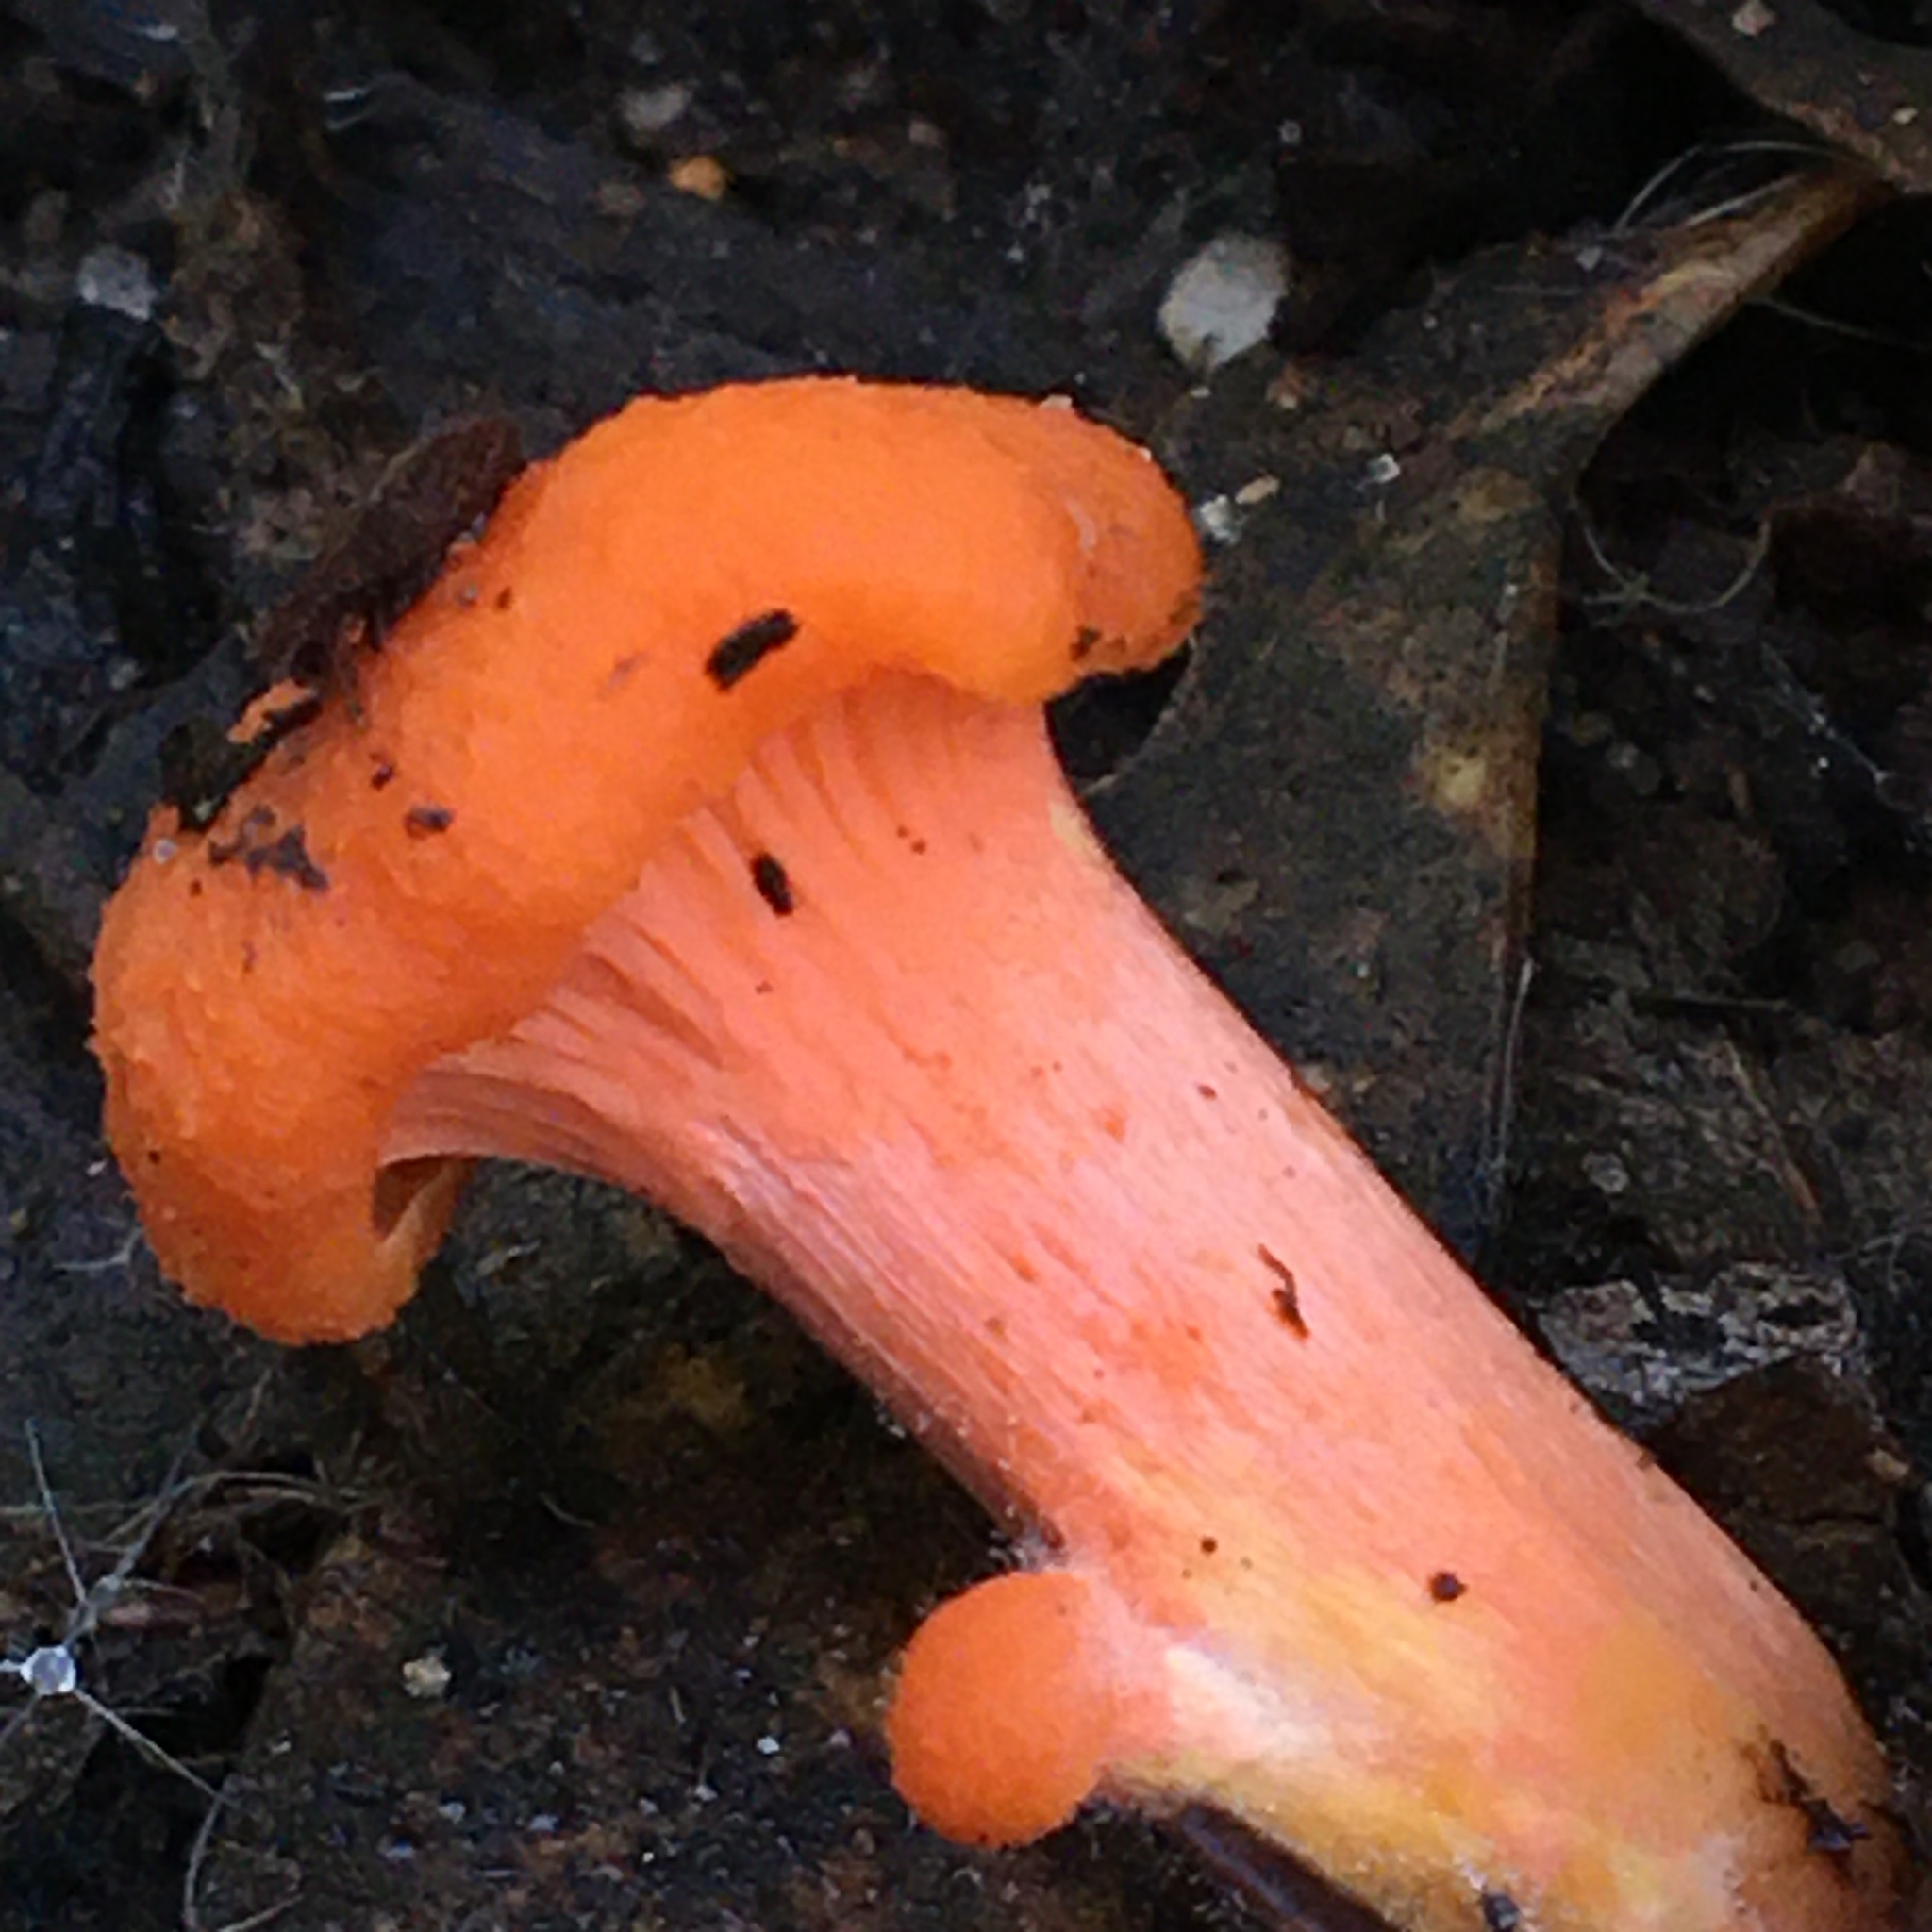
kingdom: Fungi
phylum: Basidiomycota
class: Agaricomycetes
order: Cantharellales
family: Hydnaceae
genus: Cantharellus
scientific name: Cantharellus
